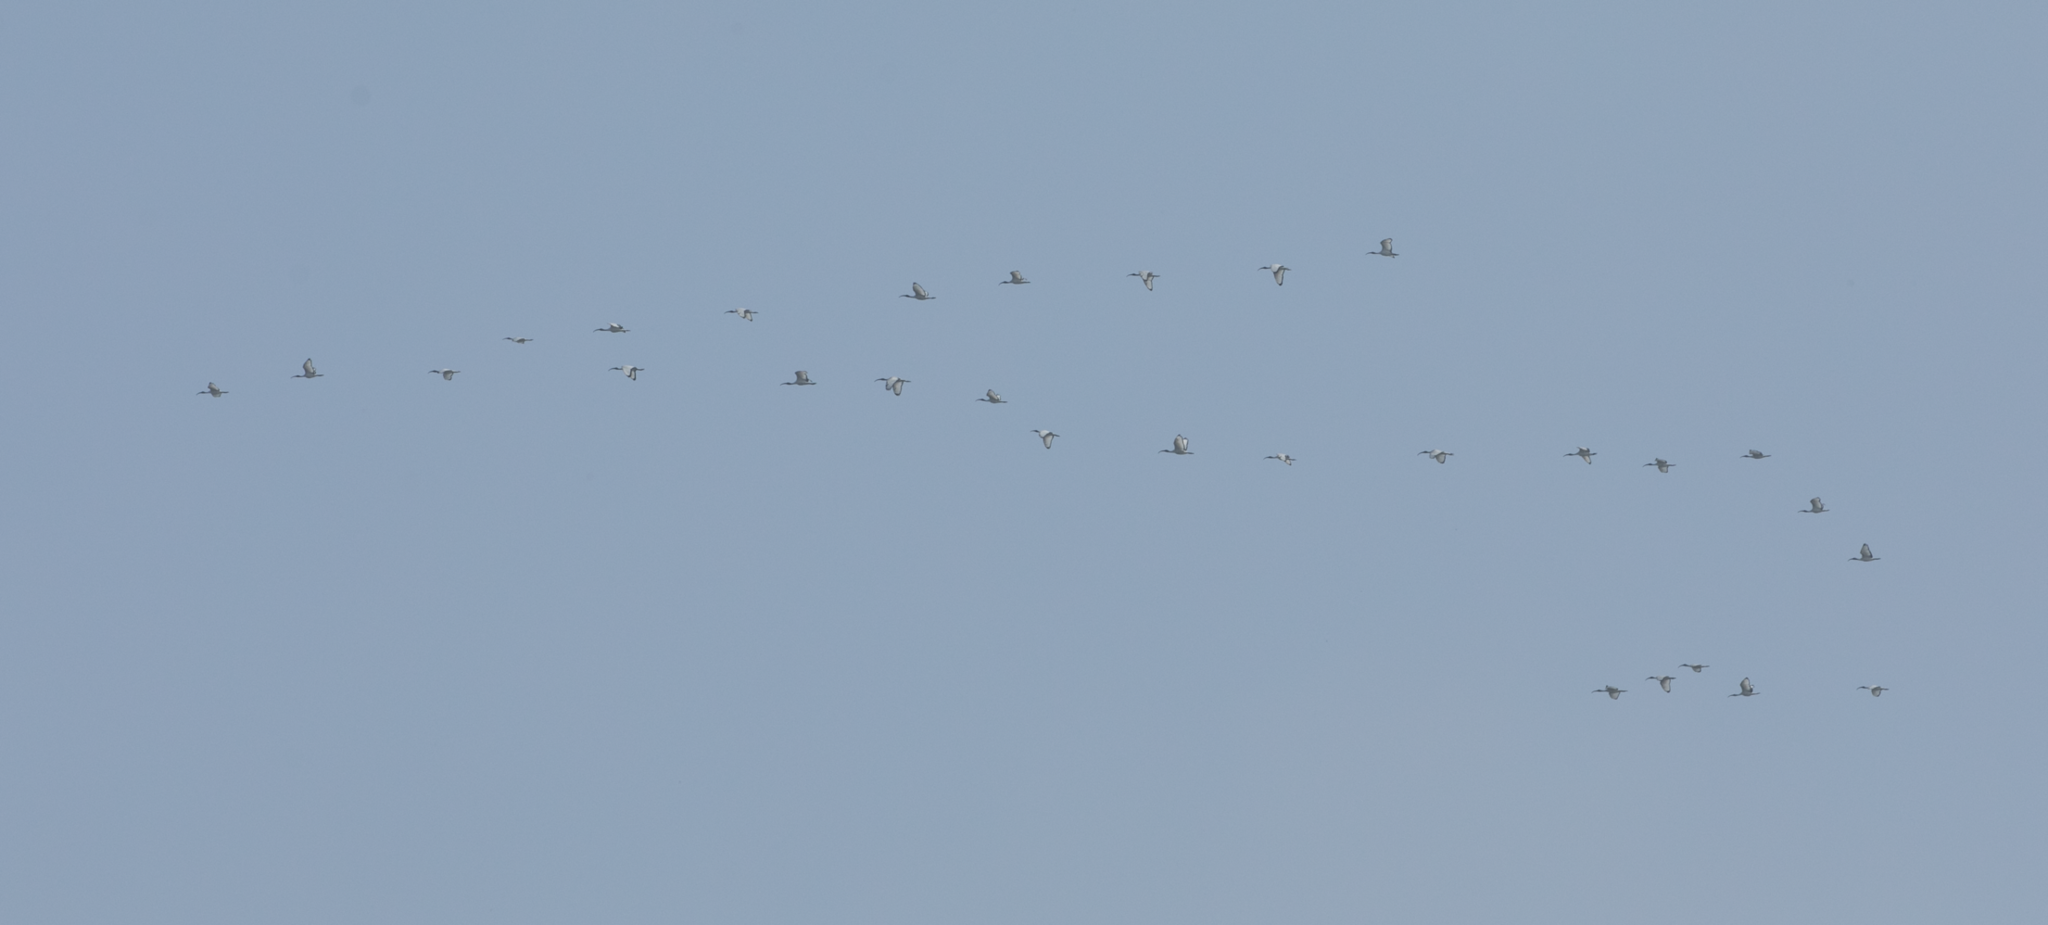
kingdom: Animalia
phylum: Chordata
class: Aves
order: Pelecaniformes
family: Threskiornithidae
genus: Threskiornis
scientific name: Threskiornis aethiopicus
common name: Sacred ibis
